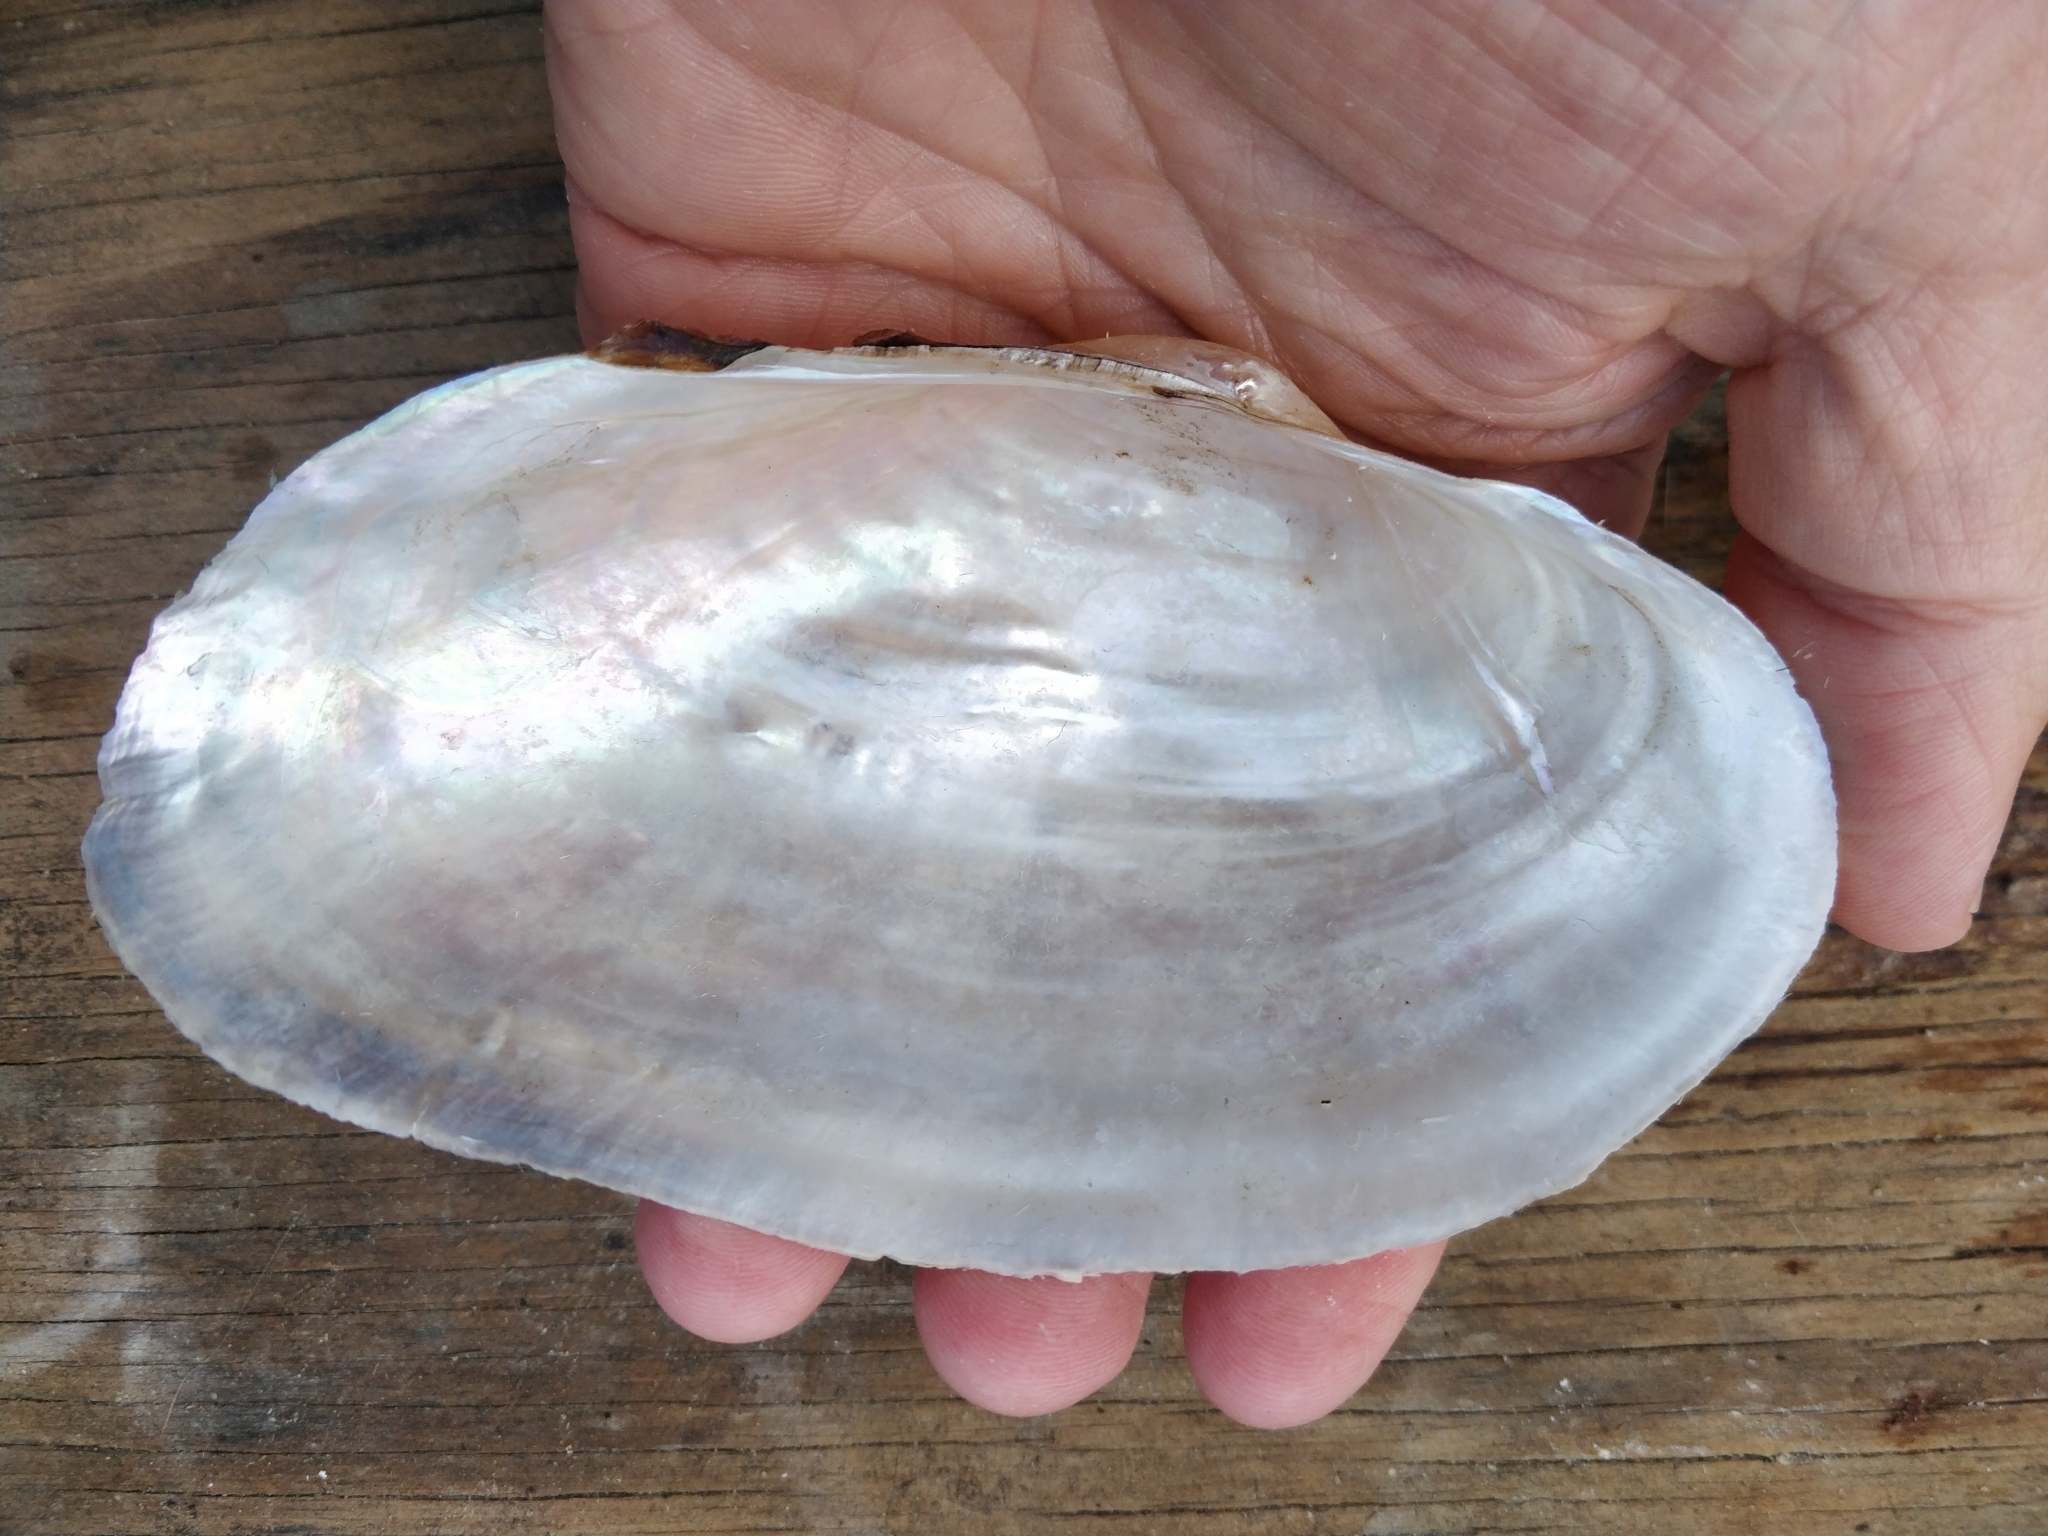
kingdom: Animalia
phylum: Mollusca
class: Bivalvia
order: Unionida
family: Unionidae
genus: Pyganodon
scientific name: Pyganodon grandis
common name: Giant floater
